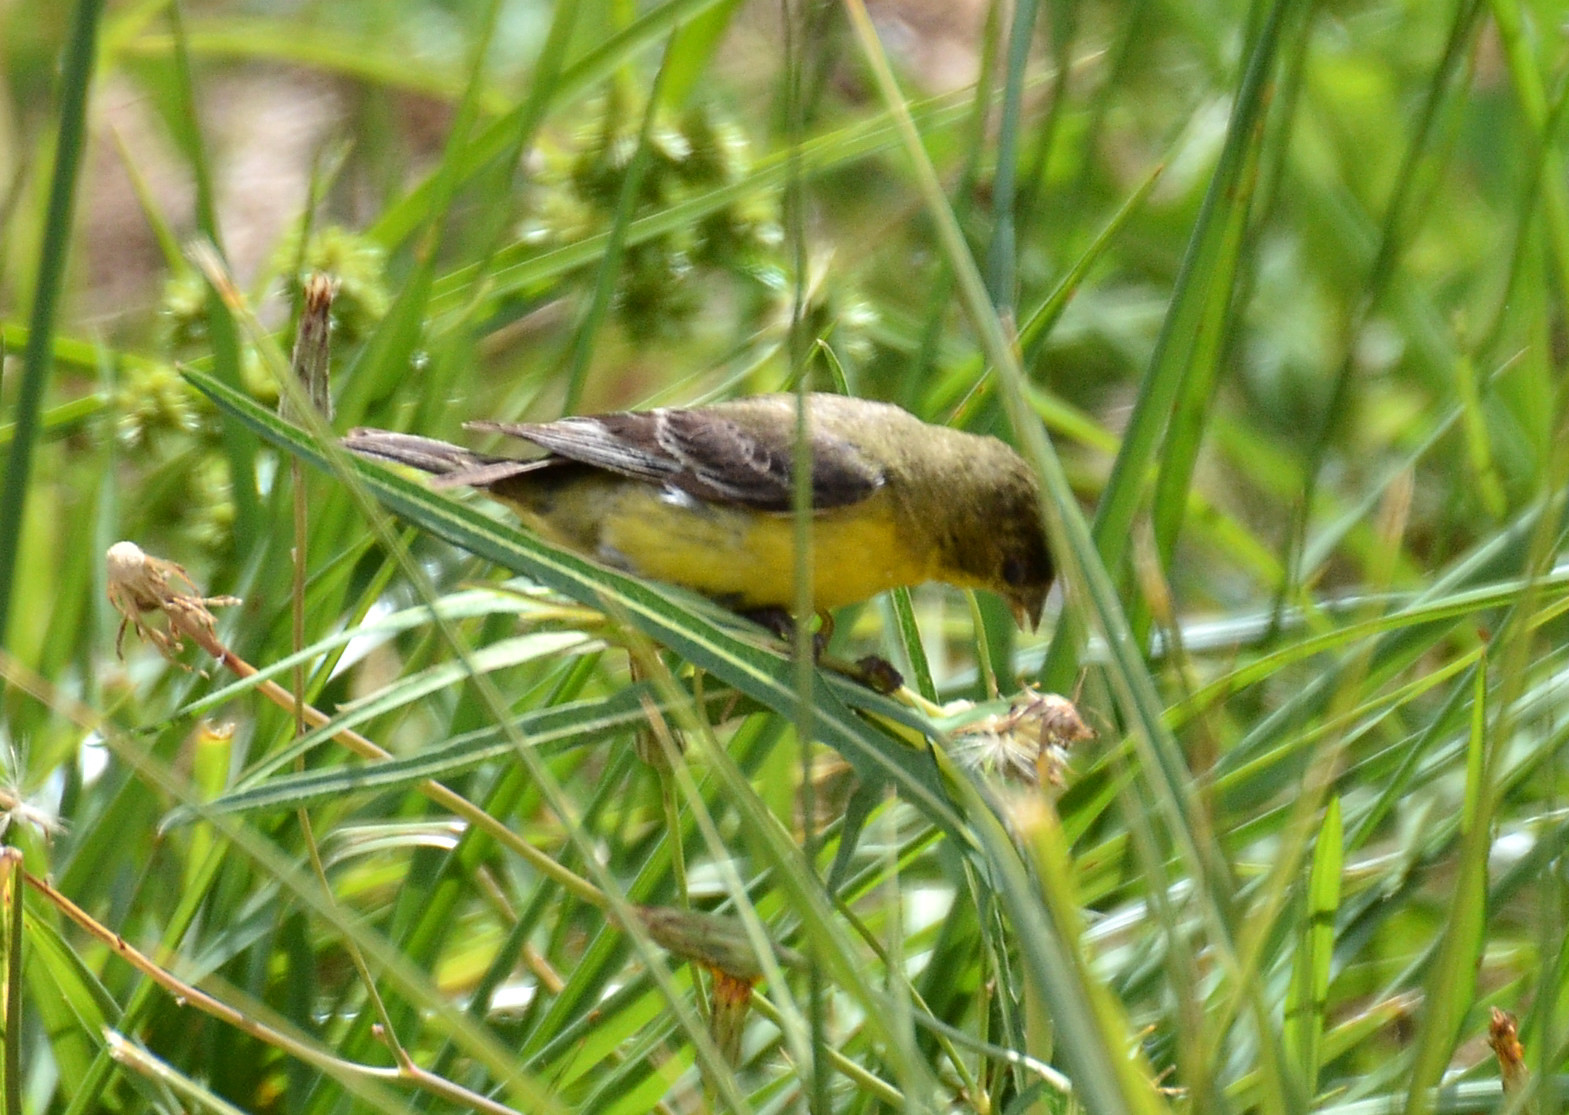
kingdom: Animalia
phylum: Chordata
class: Aves
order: Passeriformes
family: Fringillidae
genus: Spinus
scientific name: Spinus psaltria
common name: Lesser goldfinch
